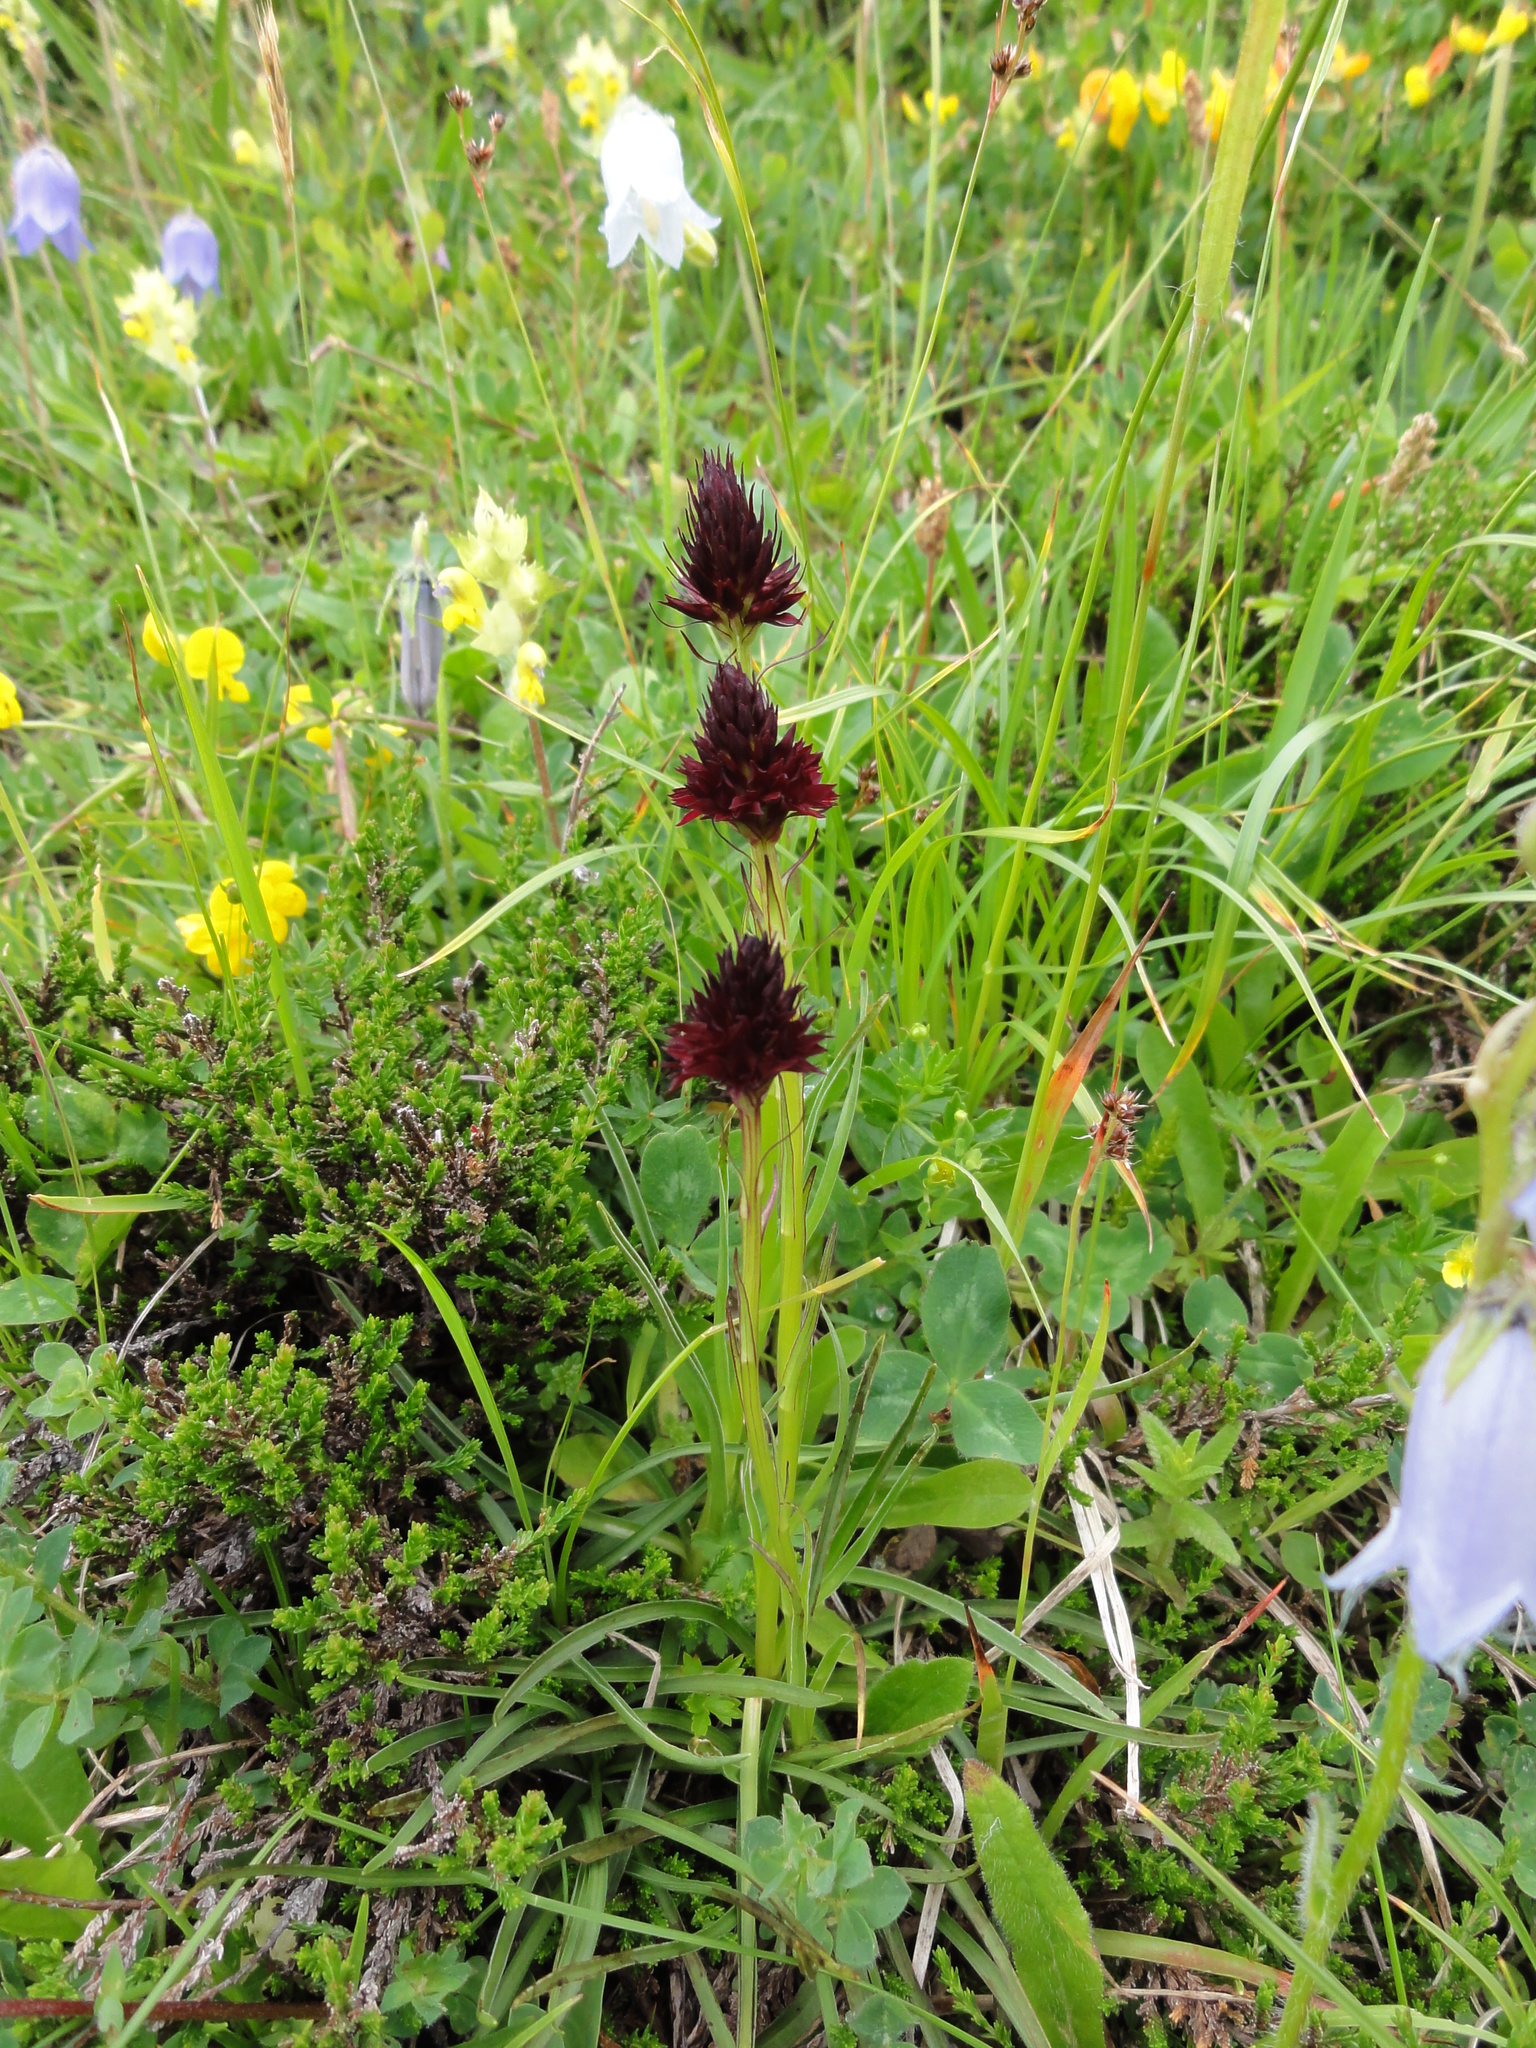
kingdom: Plantae
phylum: Tracheophyta
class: Liliopsida
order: Asparagales
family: Orchidaceae
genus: Gymnadenia
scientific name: Gymnadenia rhellicani
